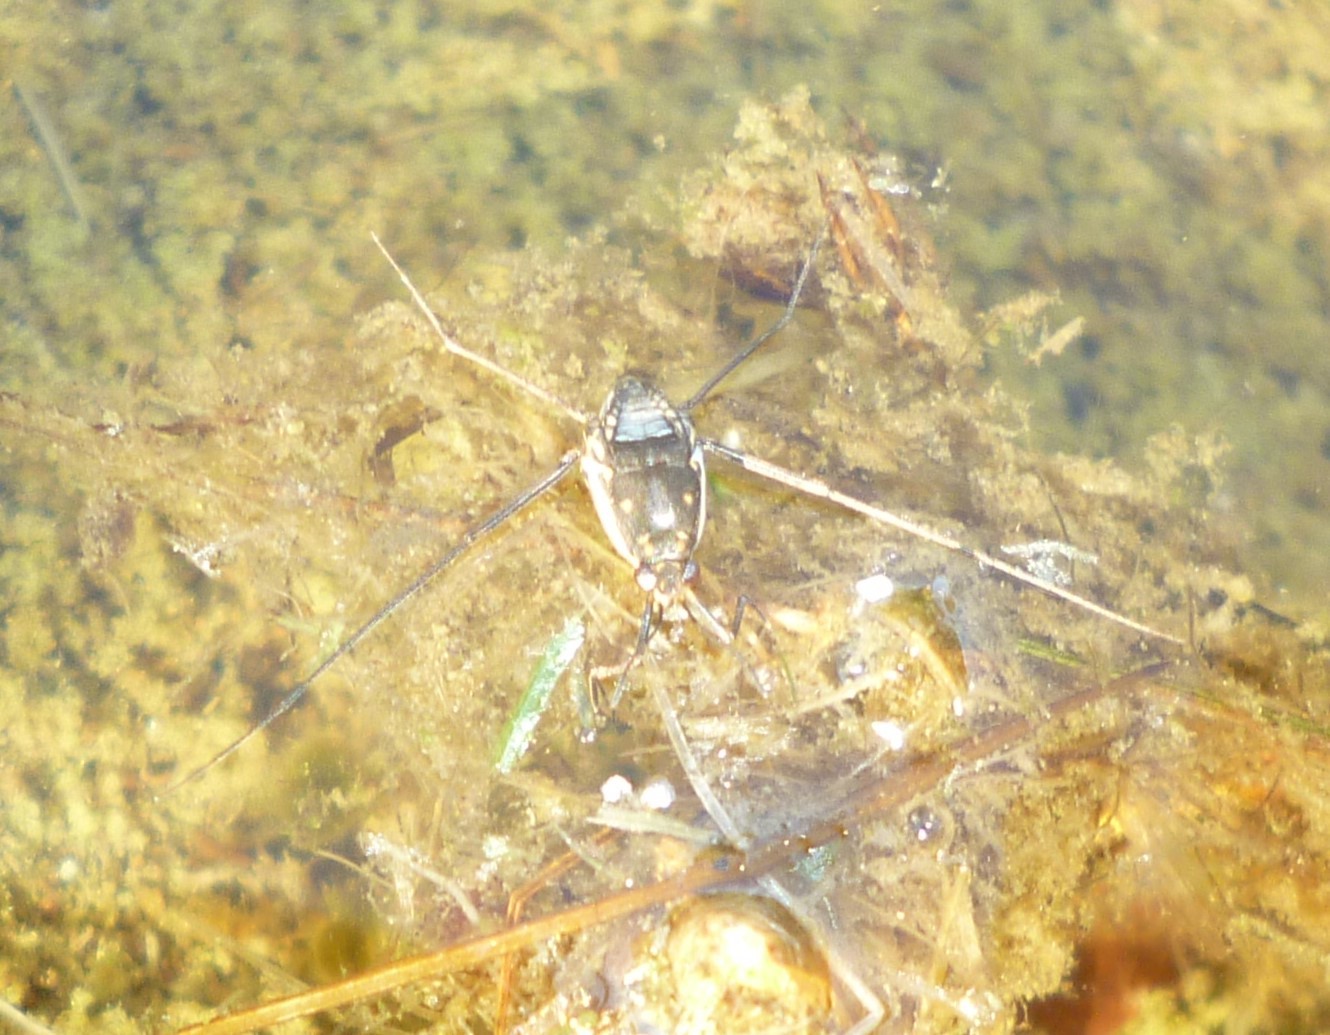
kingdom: Animalia
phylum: Arthropoda
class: Insecta
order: Hemiptera
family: Gerridae
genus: Trepobates
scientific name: Trepobates subnitidus
